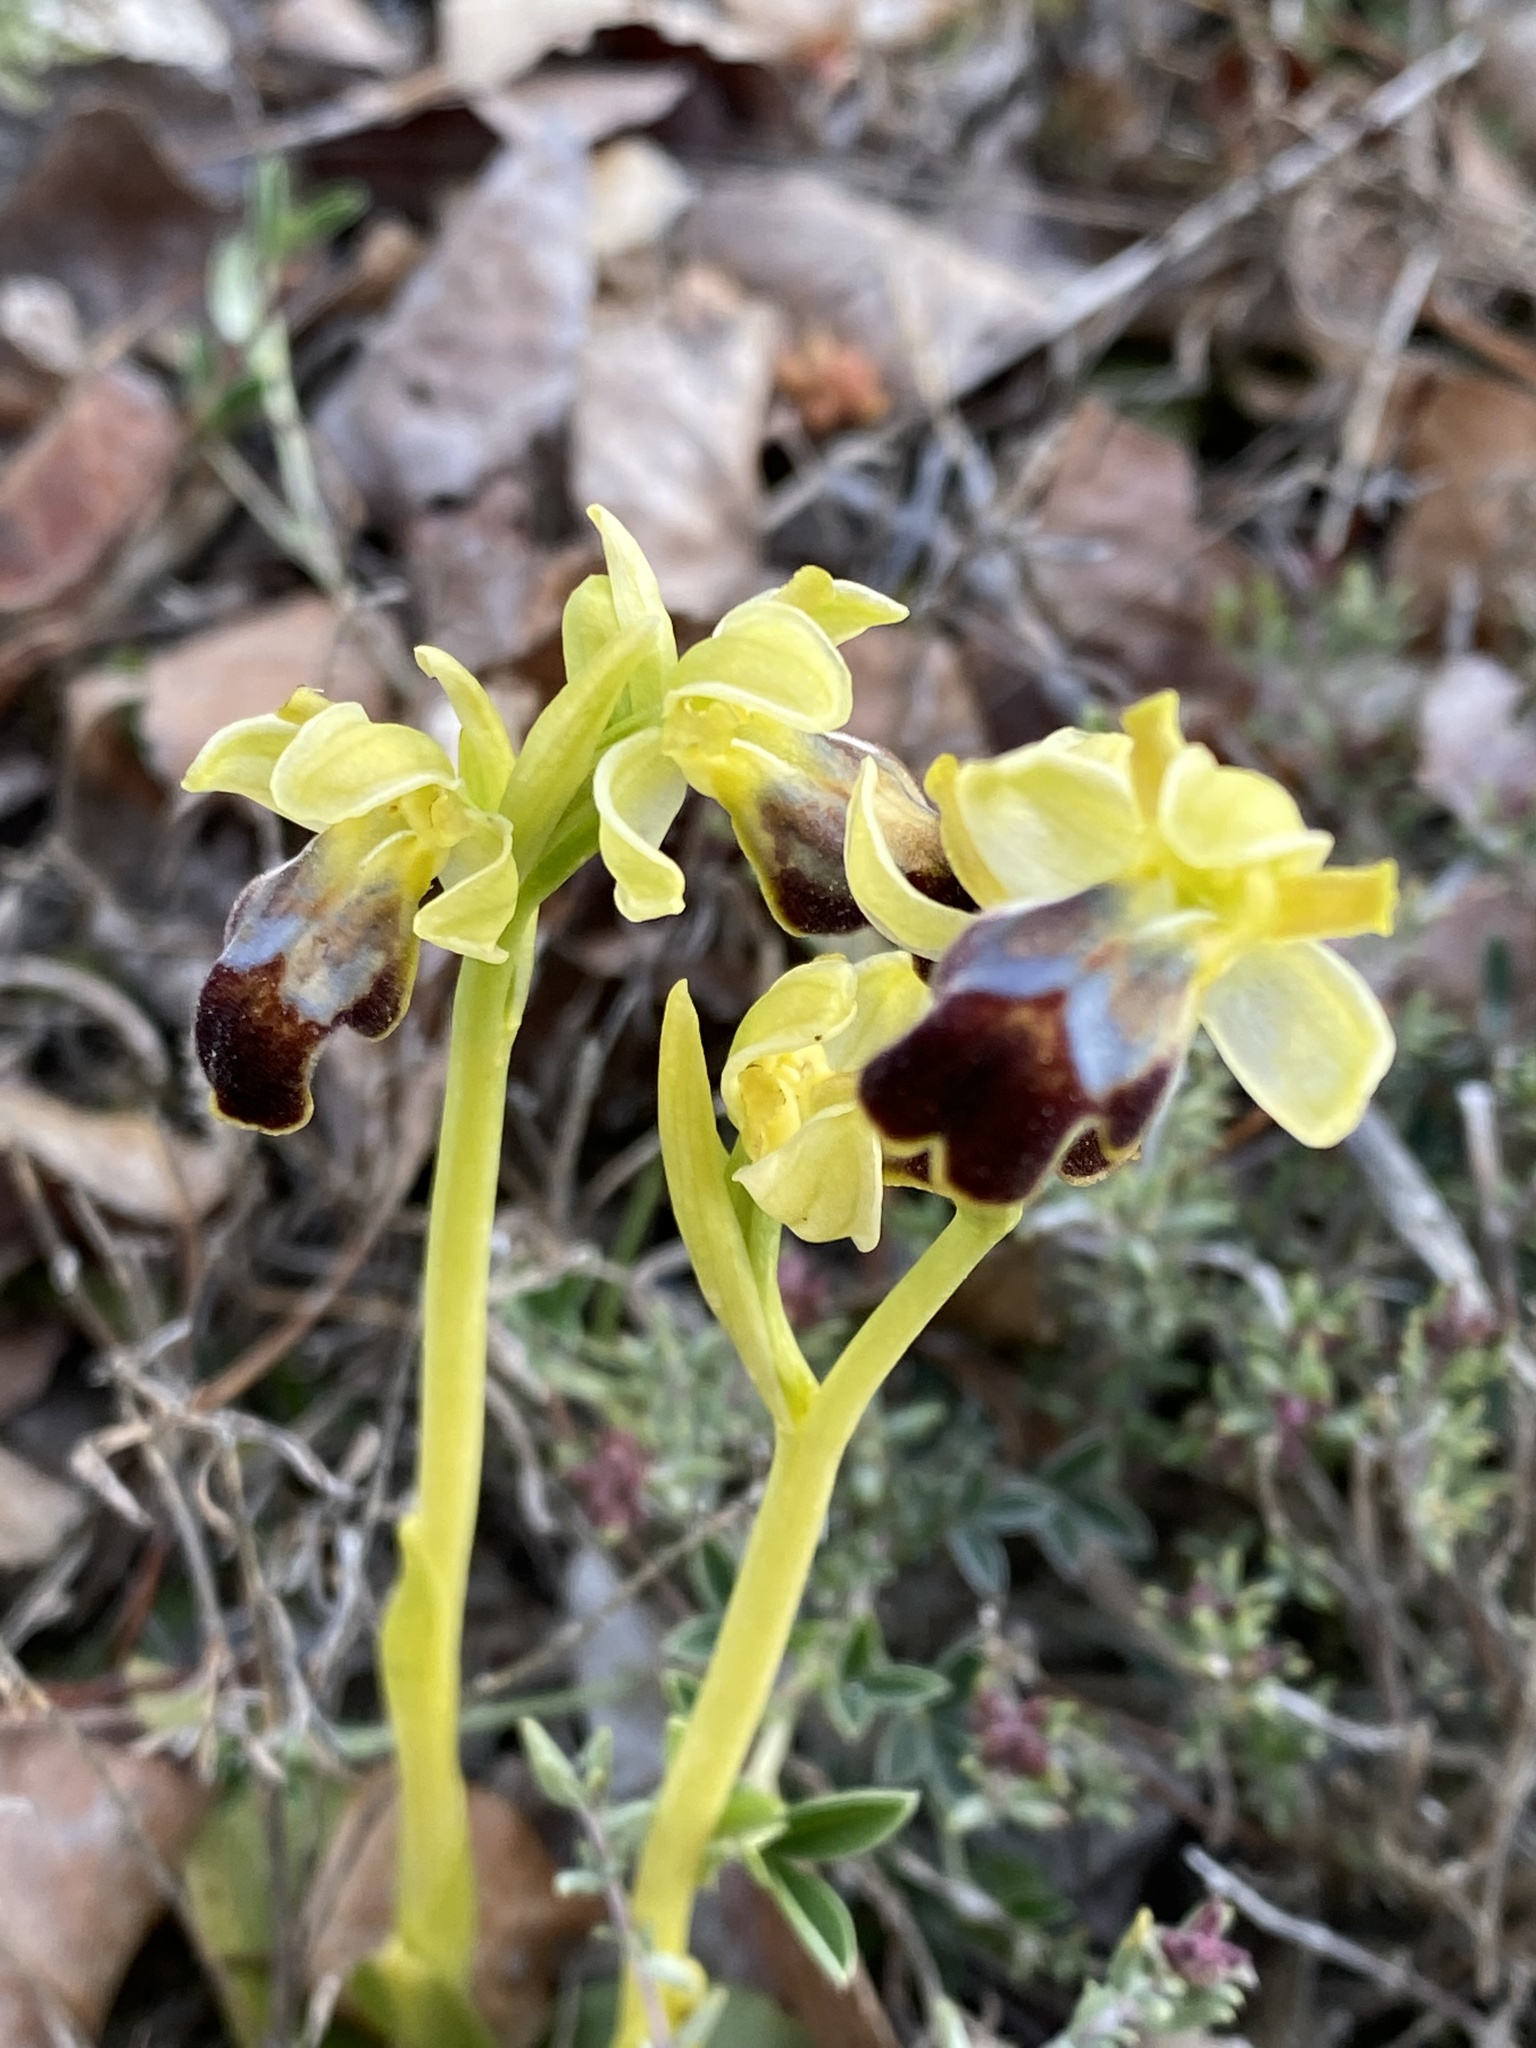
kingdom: Plantae
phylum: Tracheophyta
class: Liliopsida
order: Asparagales
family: Orchidaceae
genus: Ophrys
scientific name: Ophrys fusca
